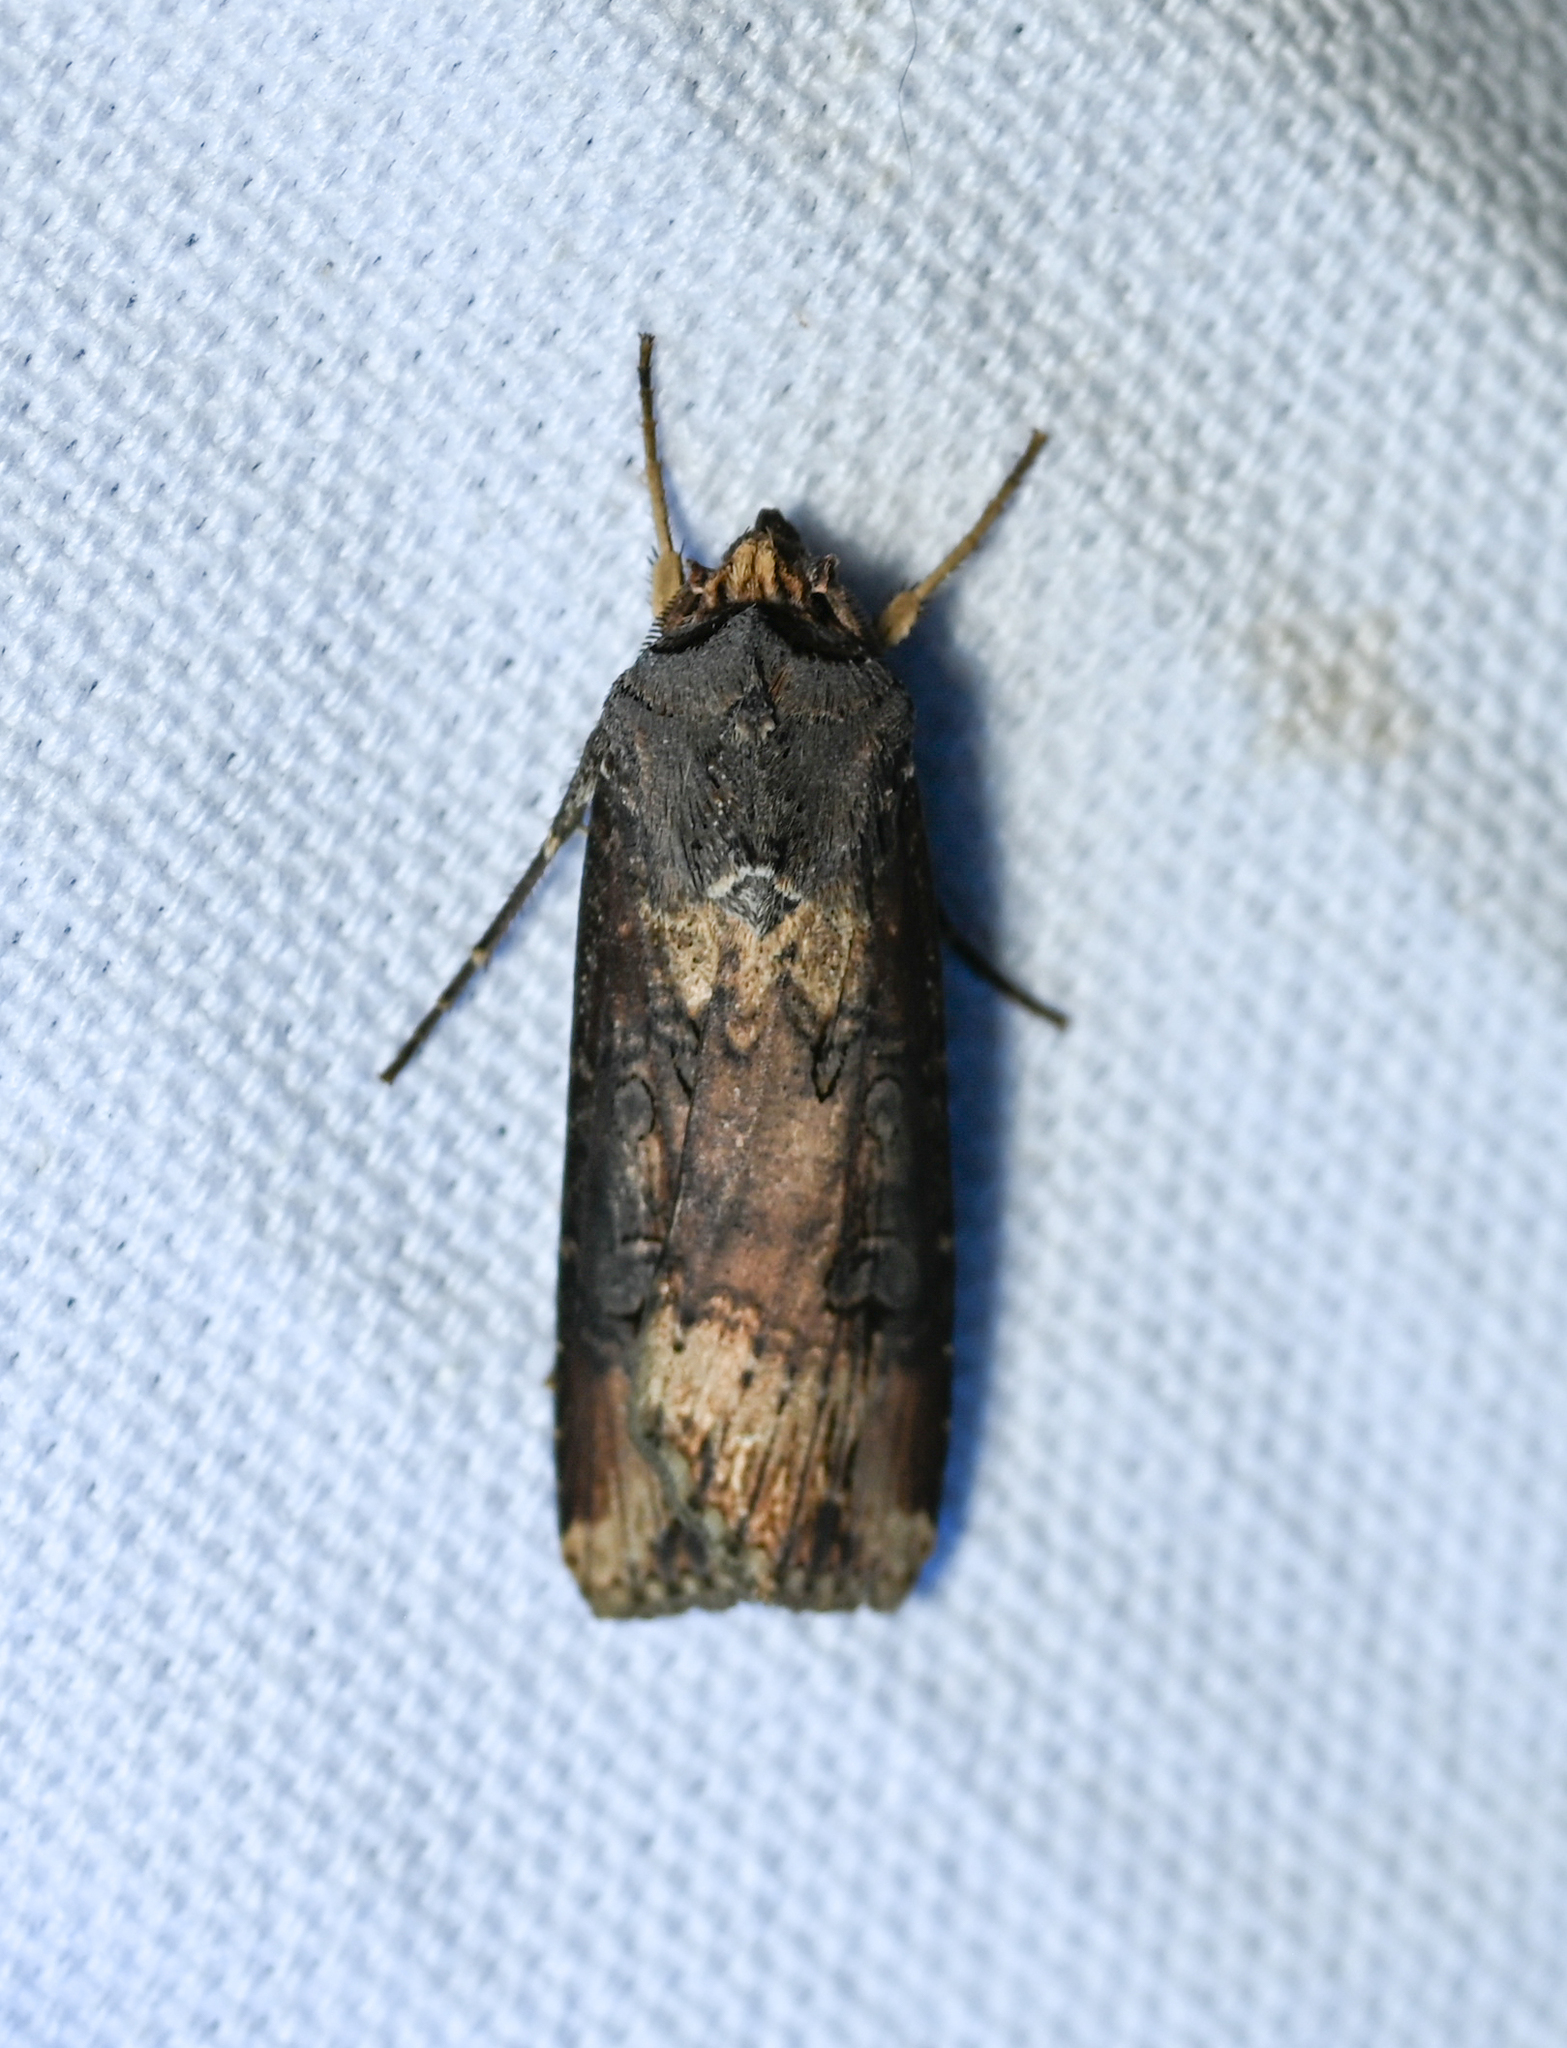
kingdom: Animalia
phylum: Arthropoda
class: Insecta
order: Lepidoptera
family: Noctuidae
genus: Agrotis
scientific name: Agrotis ipsilon
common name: Dark sword-grass
